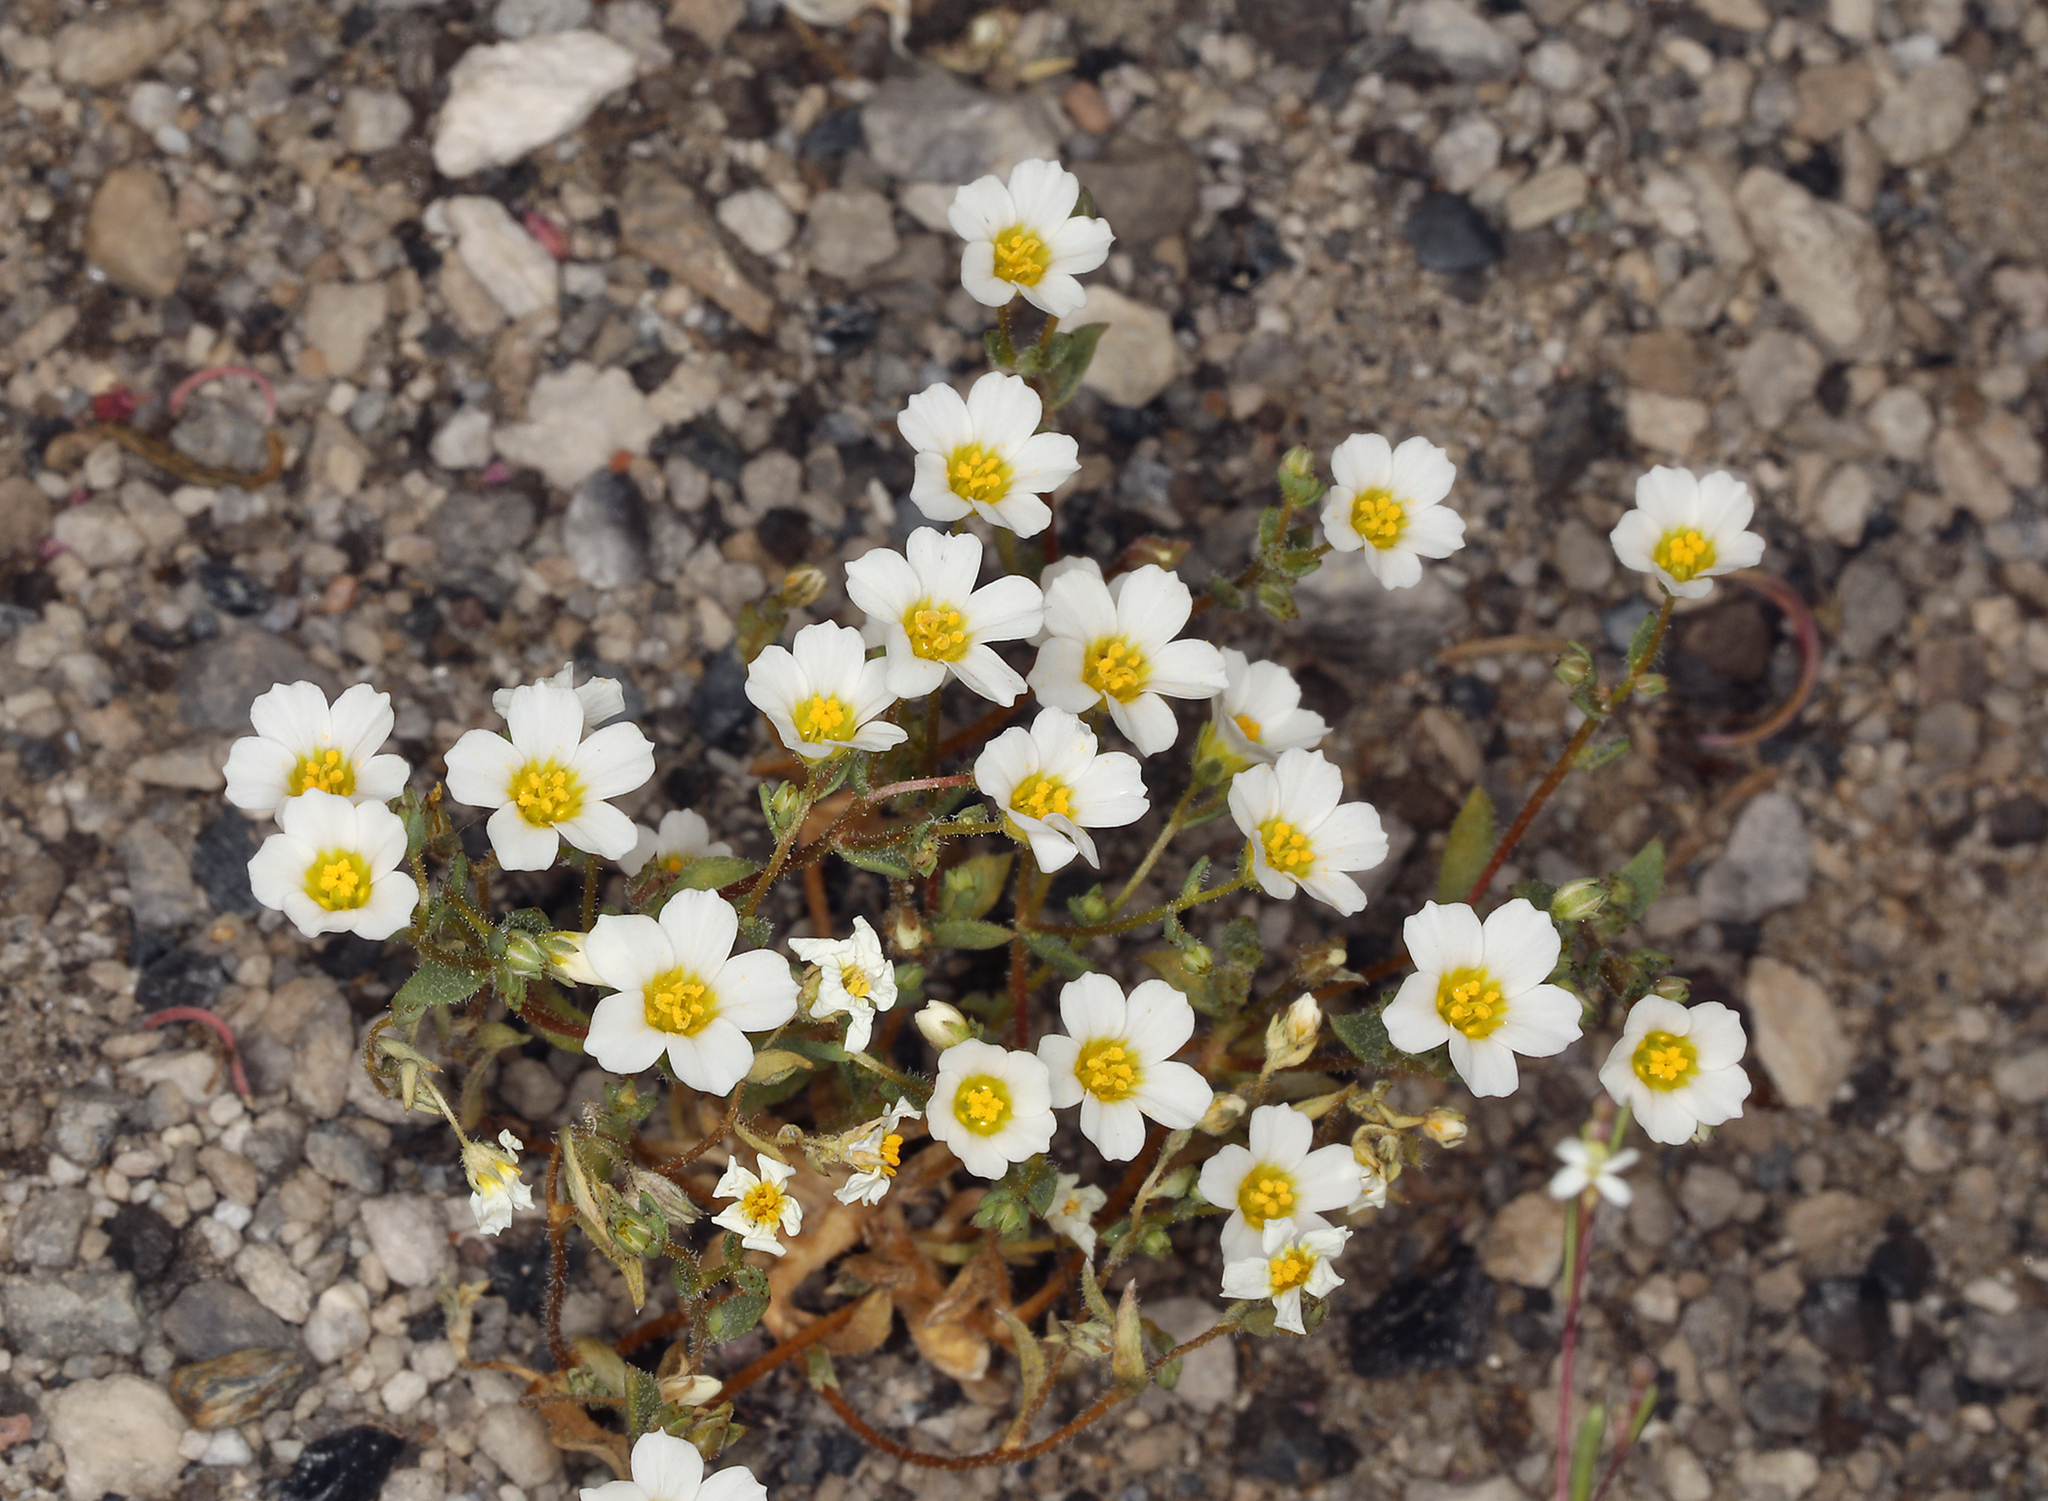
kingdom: Plantae
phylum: Tracheophyta
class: Magnoliopsida
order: Ericales
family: Polemoniaceae
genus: Linanthus
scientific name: Linanthus inyoensis
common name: Inyo gilia
